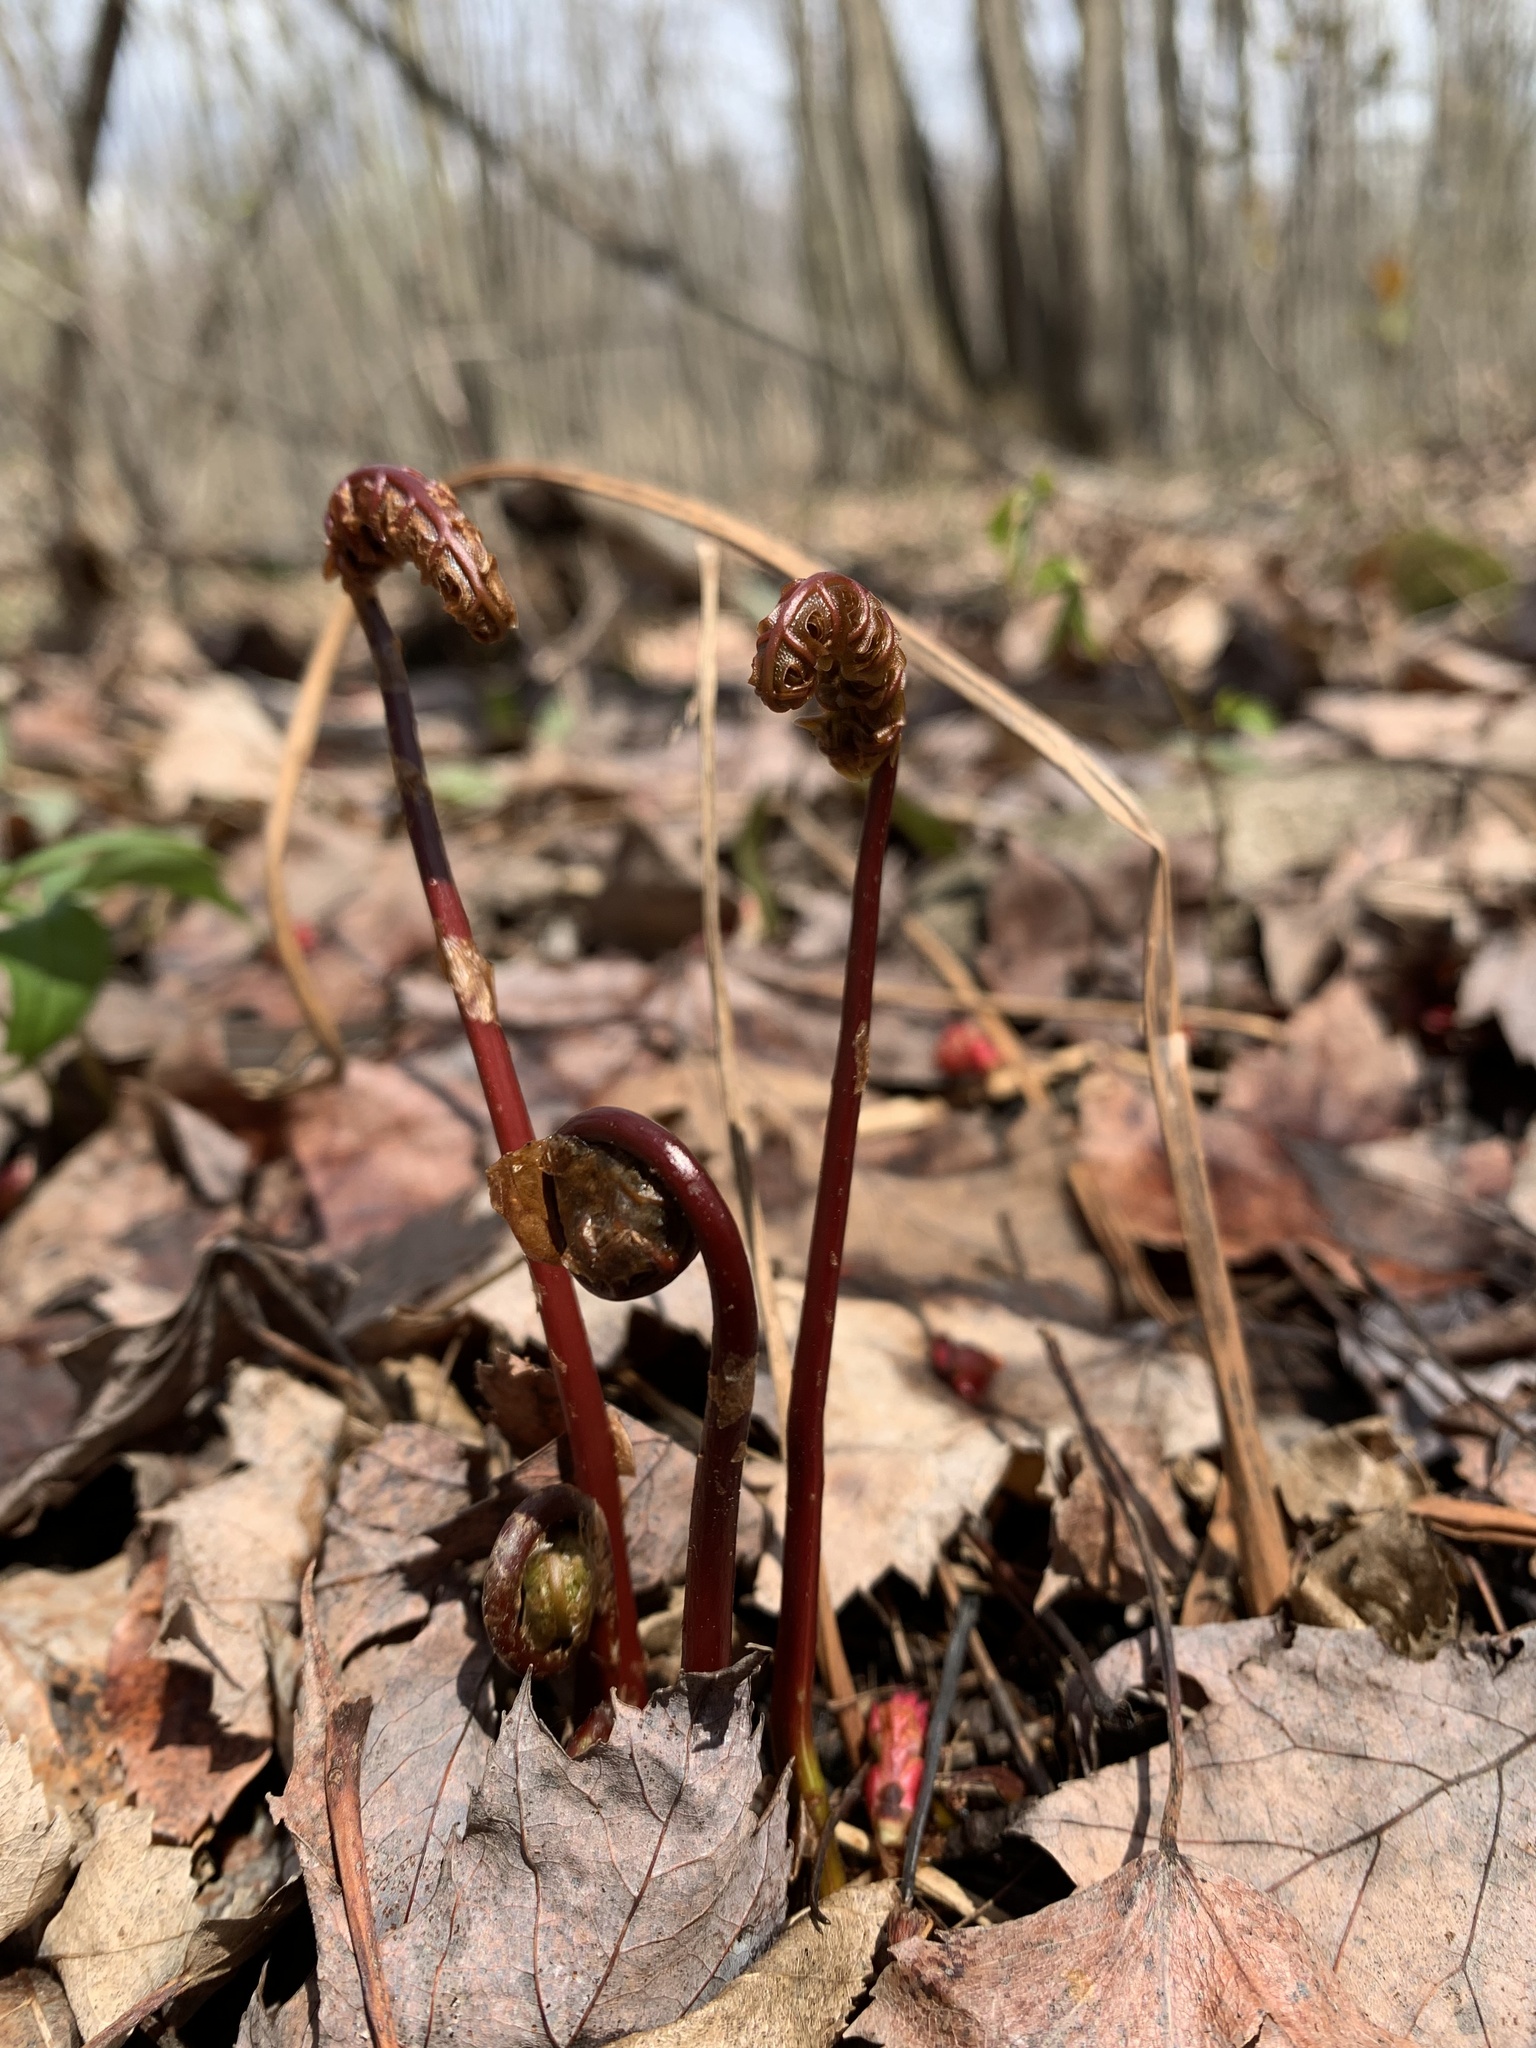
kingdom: Plantae
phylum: Tracheophyta
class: Polypodiopsida
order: Polypodiales
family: Onocleaceae
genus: Onoclea
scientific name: Onoclea sensibilis
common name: Sensitive fern
